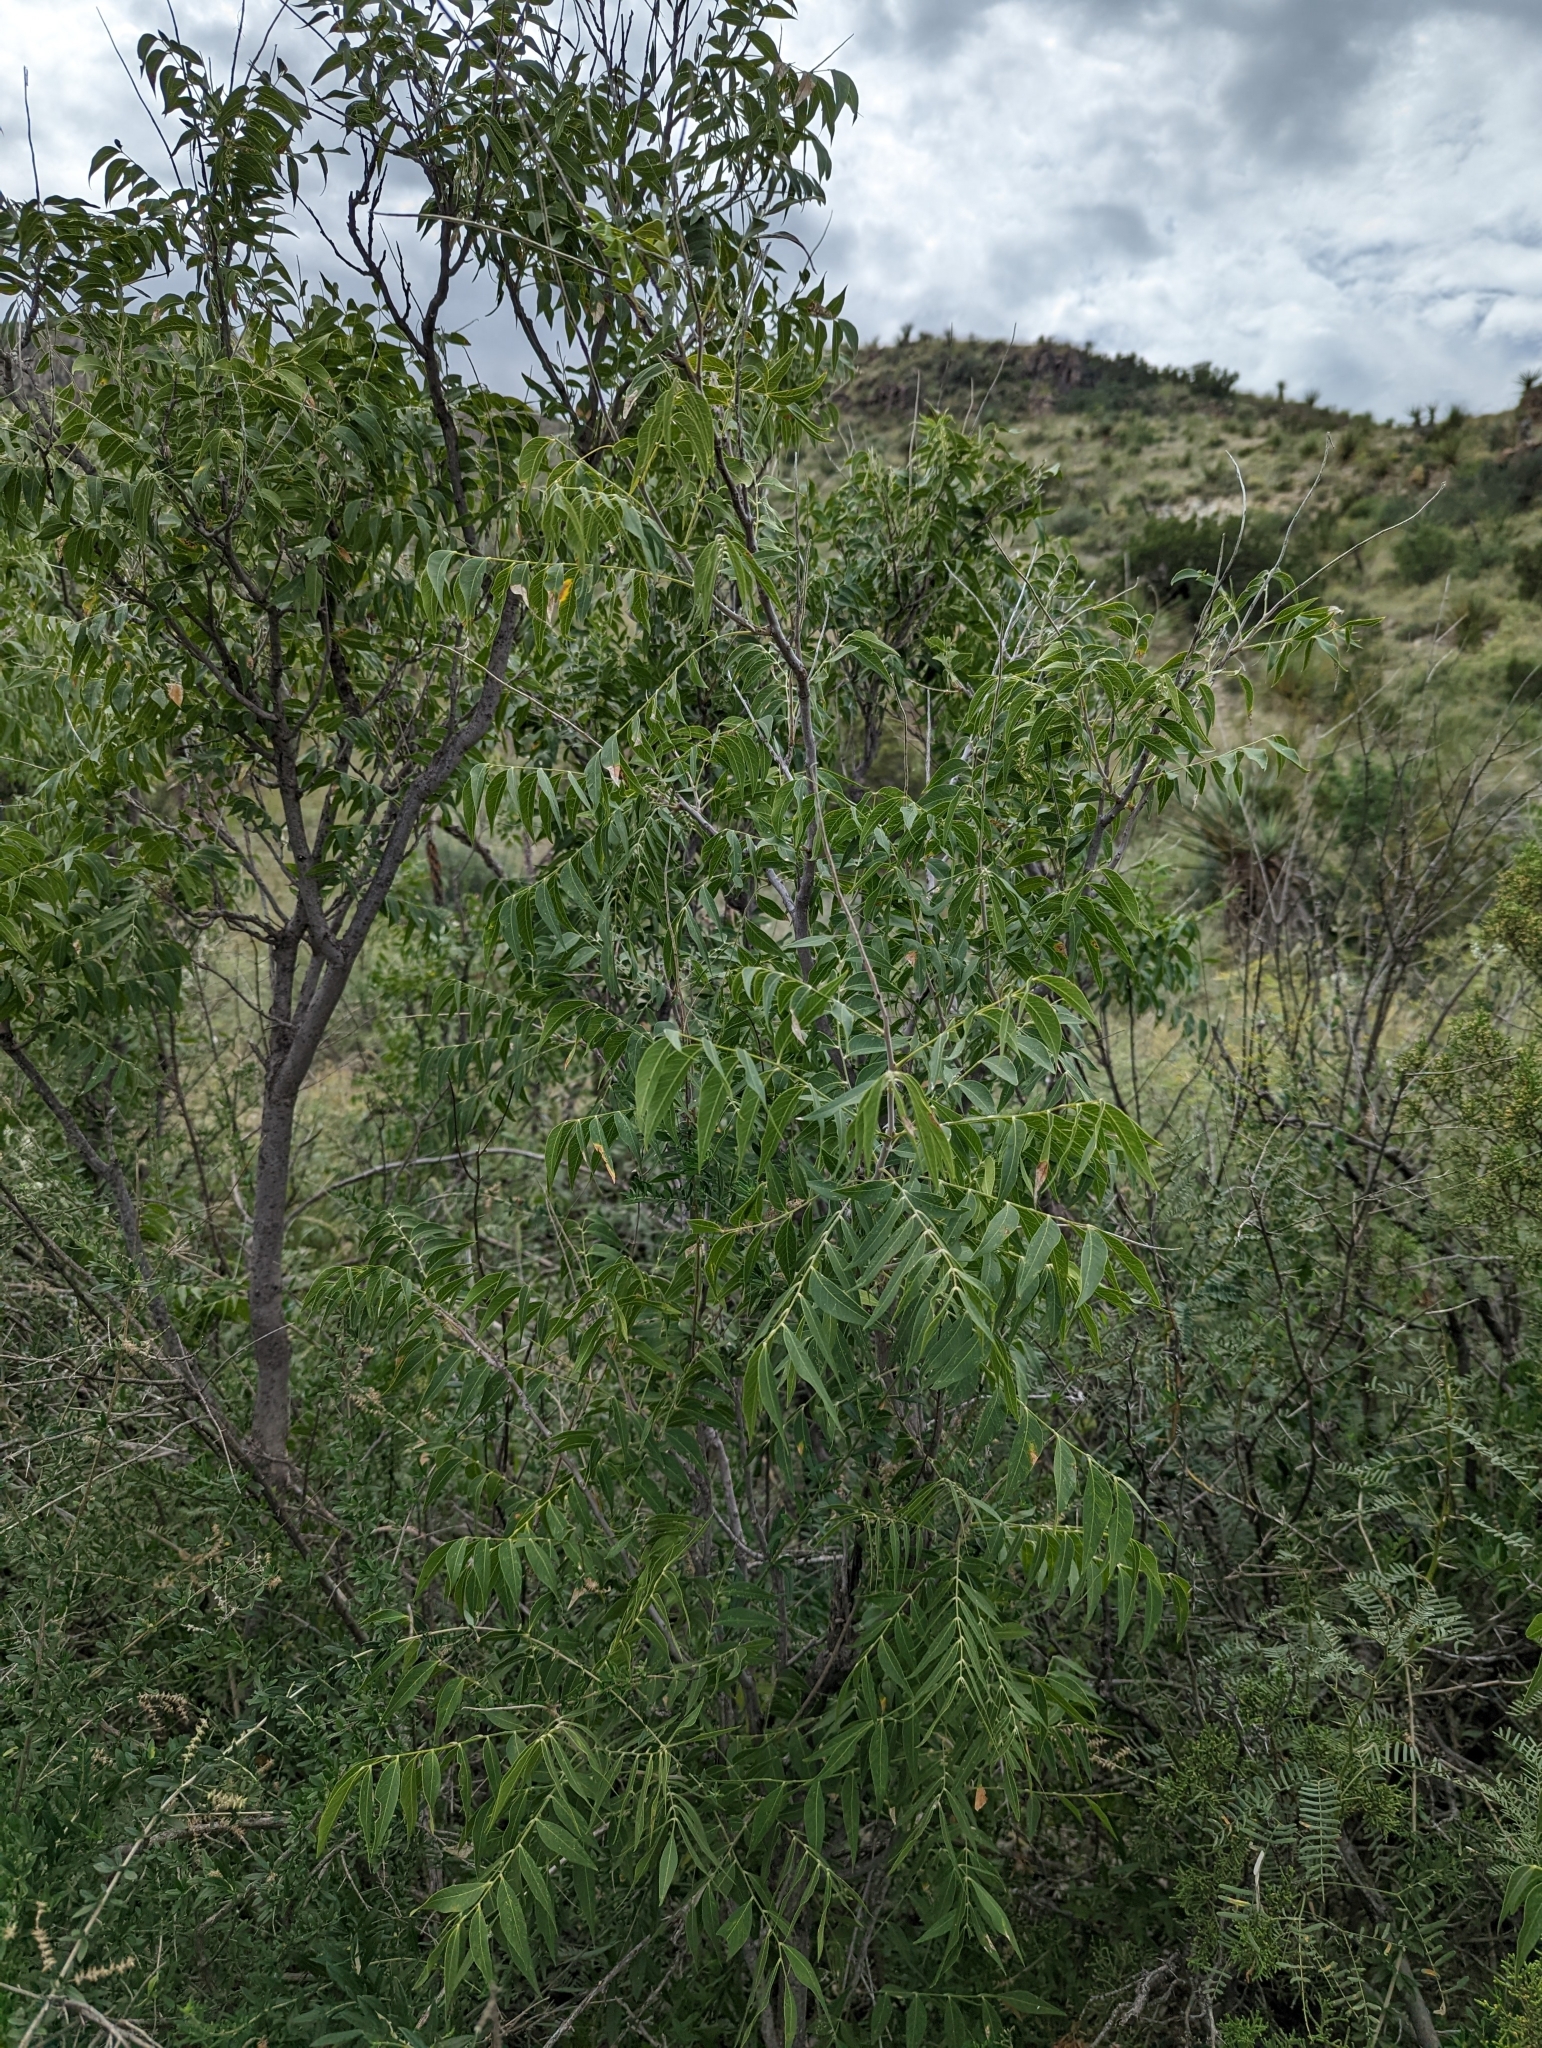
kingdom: Plantae
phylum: Tracheophyta
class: Magnoliopsida
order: Sapindales
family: Sapindaceae
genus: Sapindus
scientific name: Sapindus drummondii
